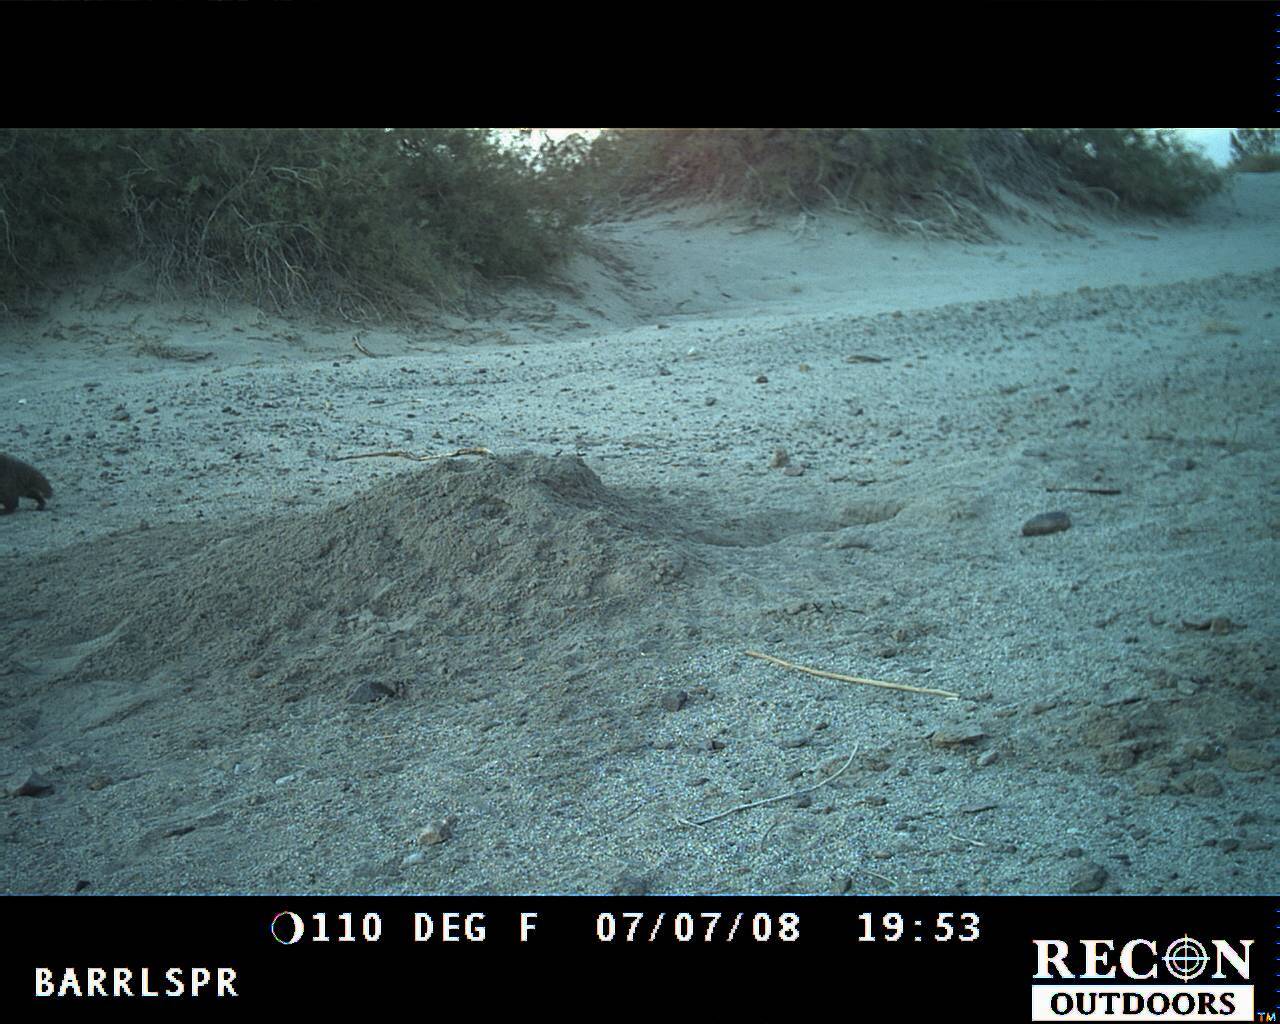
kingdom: Animalia
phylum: Chordata
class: Mammalia
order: Carnivora
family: Mustelidae
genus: Taxidea
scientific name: Taxidea taxus
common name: American badger
